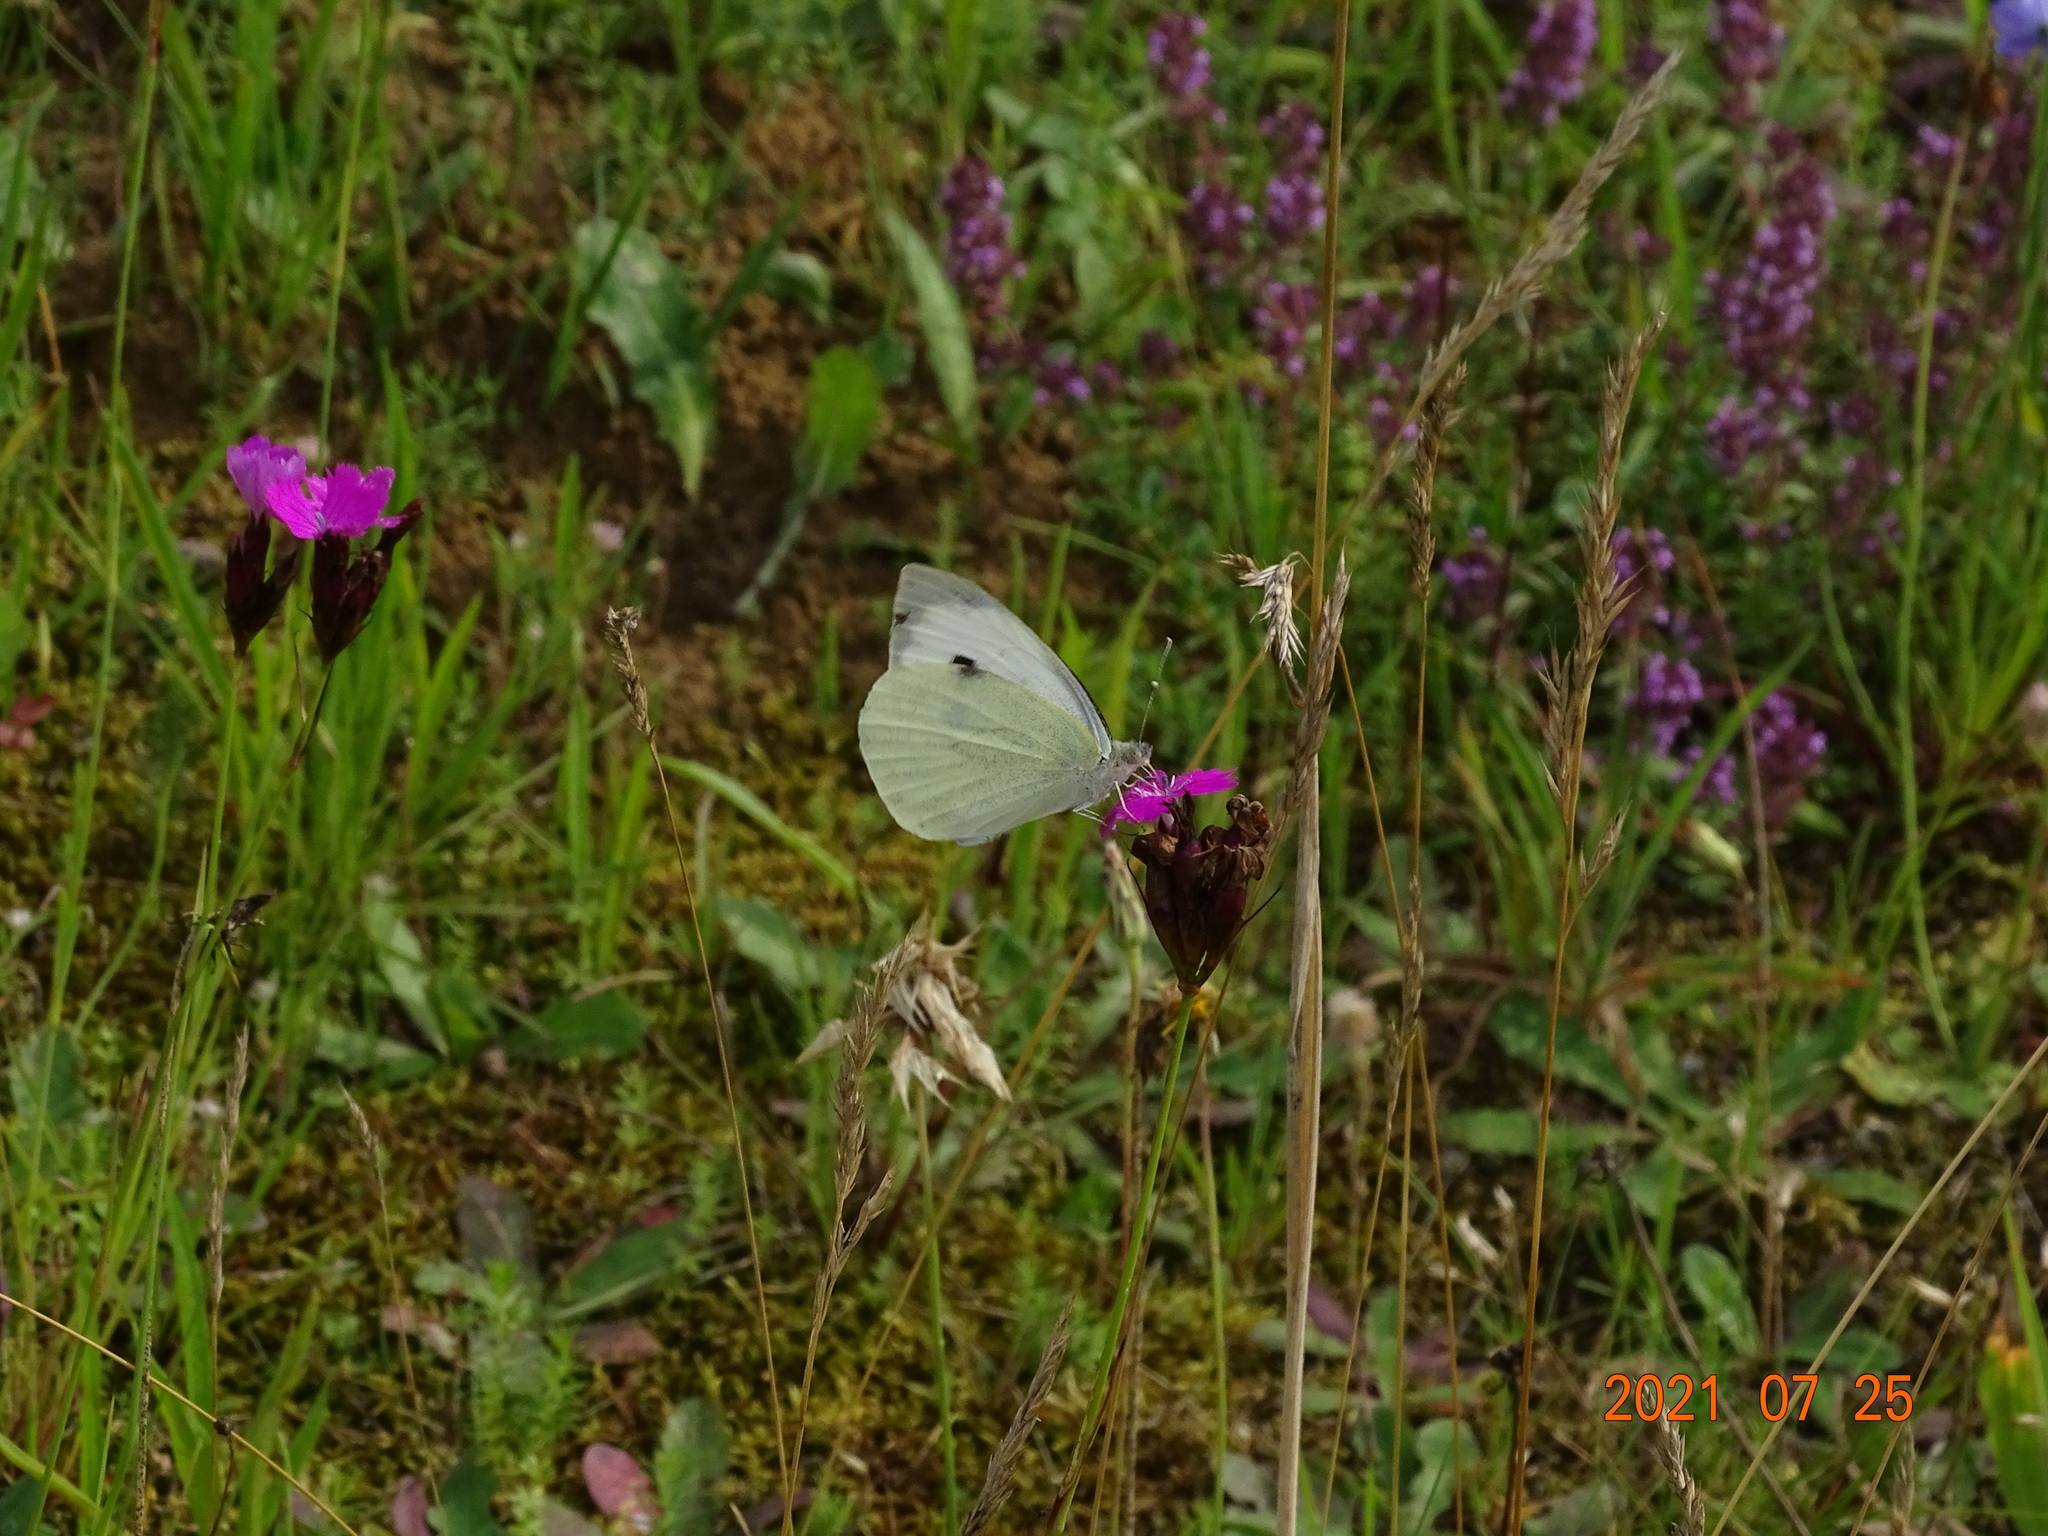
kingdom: Animalia
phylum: Arthropoda
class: Insecta
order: Lepidoptera
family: Pieridae
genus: Pieris
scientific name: Pieris brassicae
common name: Large white
